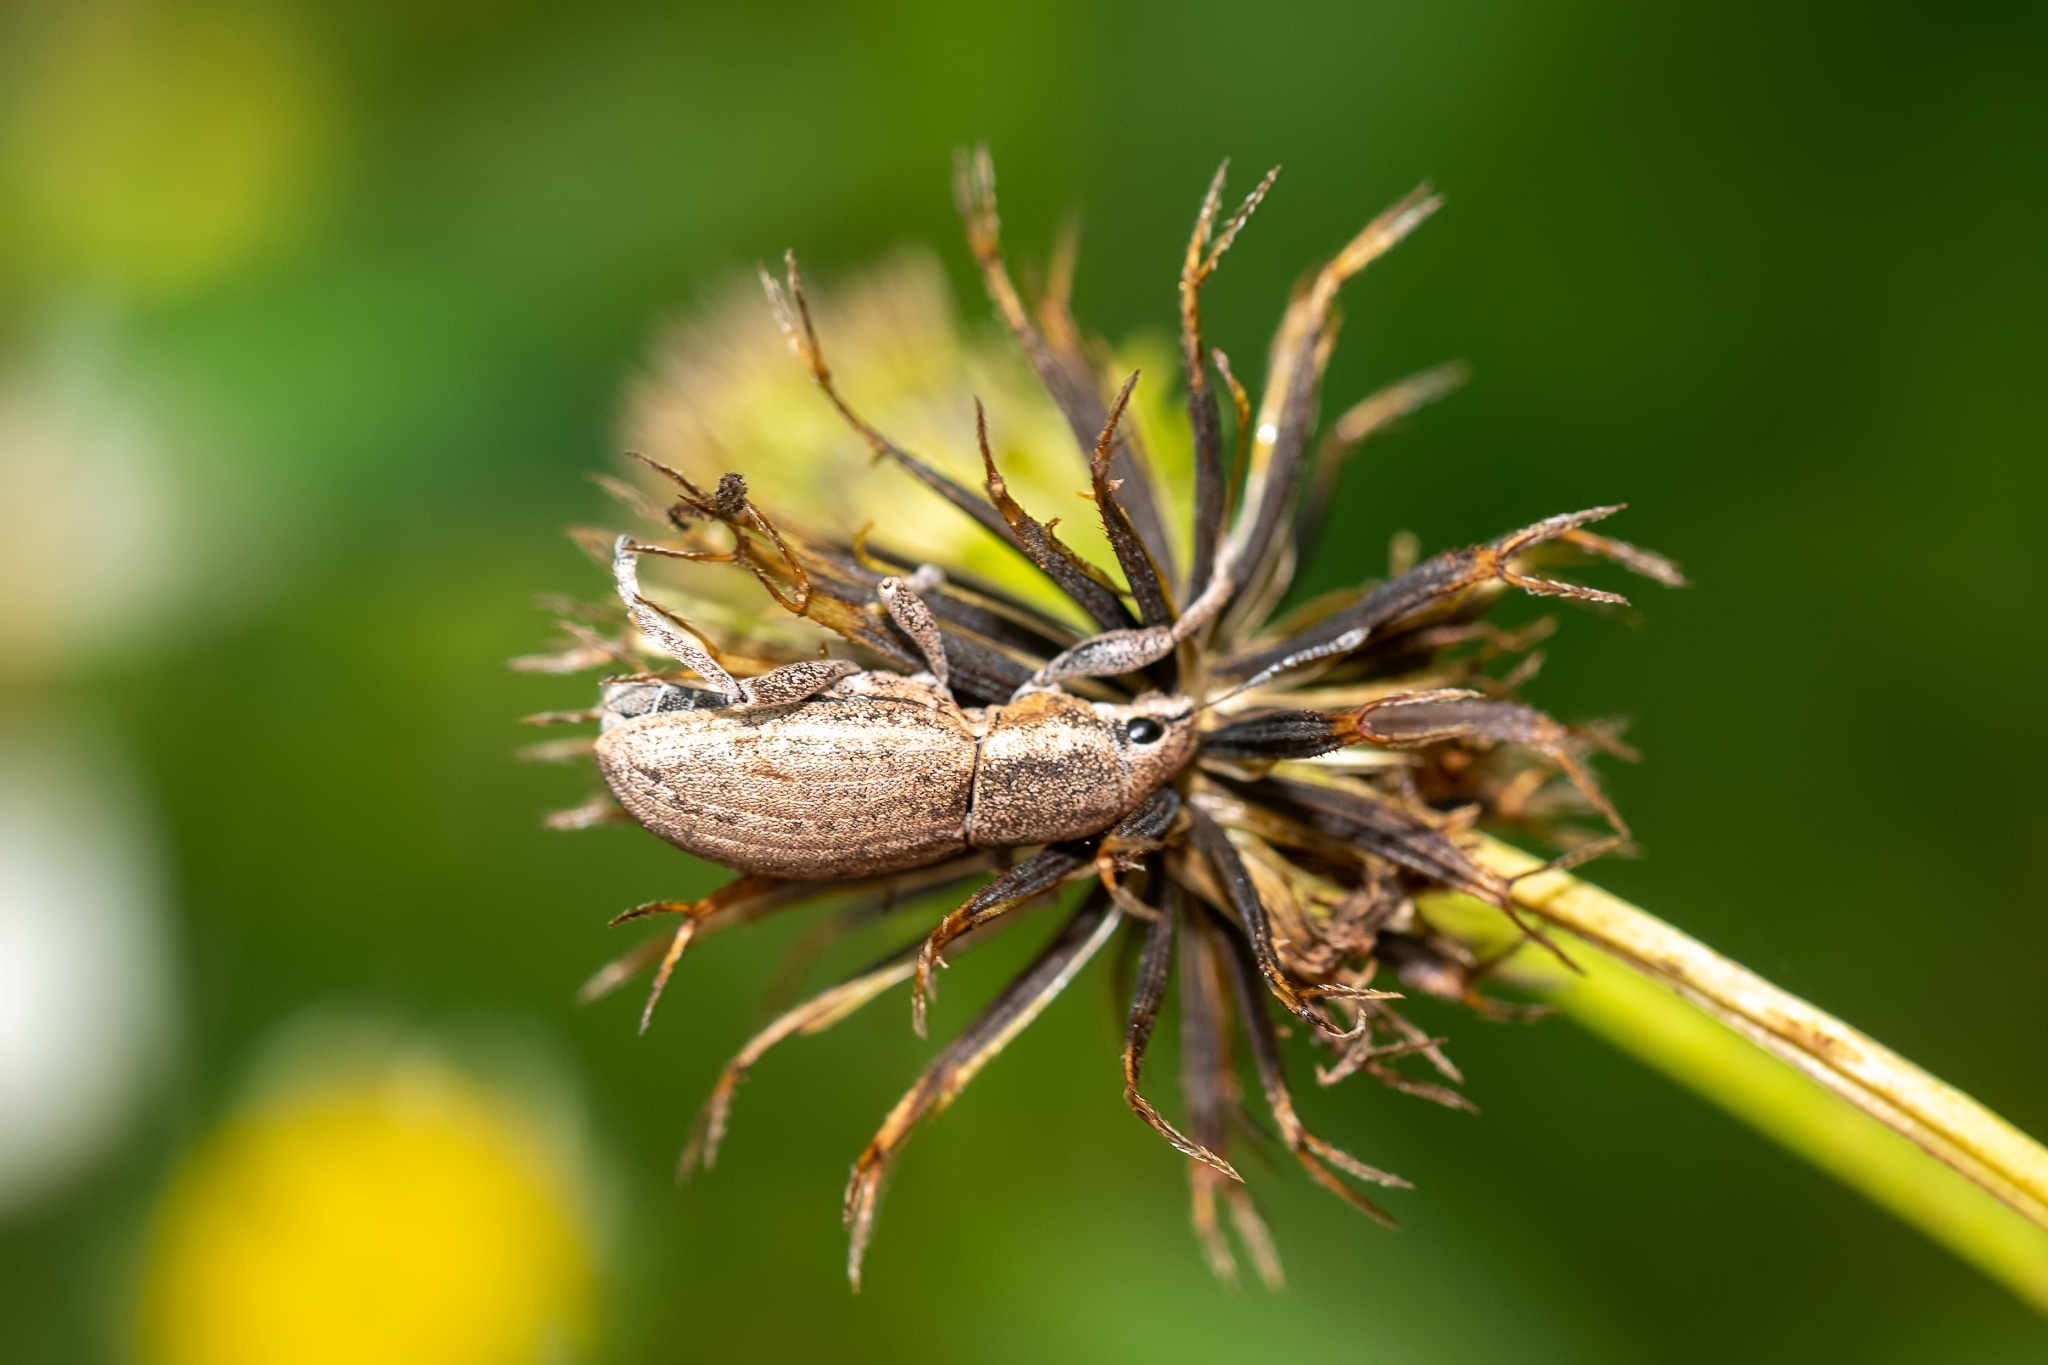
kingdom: Animalia
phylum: Arthropoda
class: Insecta
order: Coleoptera
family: Curculionidae
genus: Tanymecus
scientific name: Tanymecus lacaena
